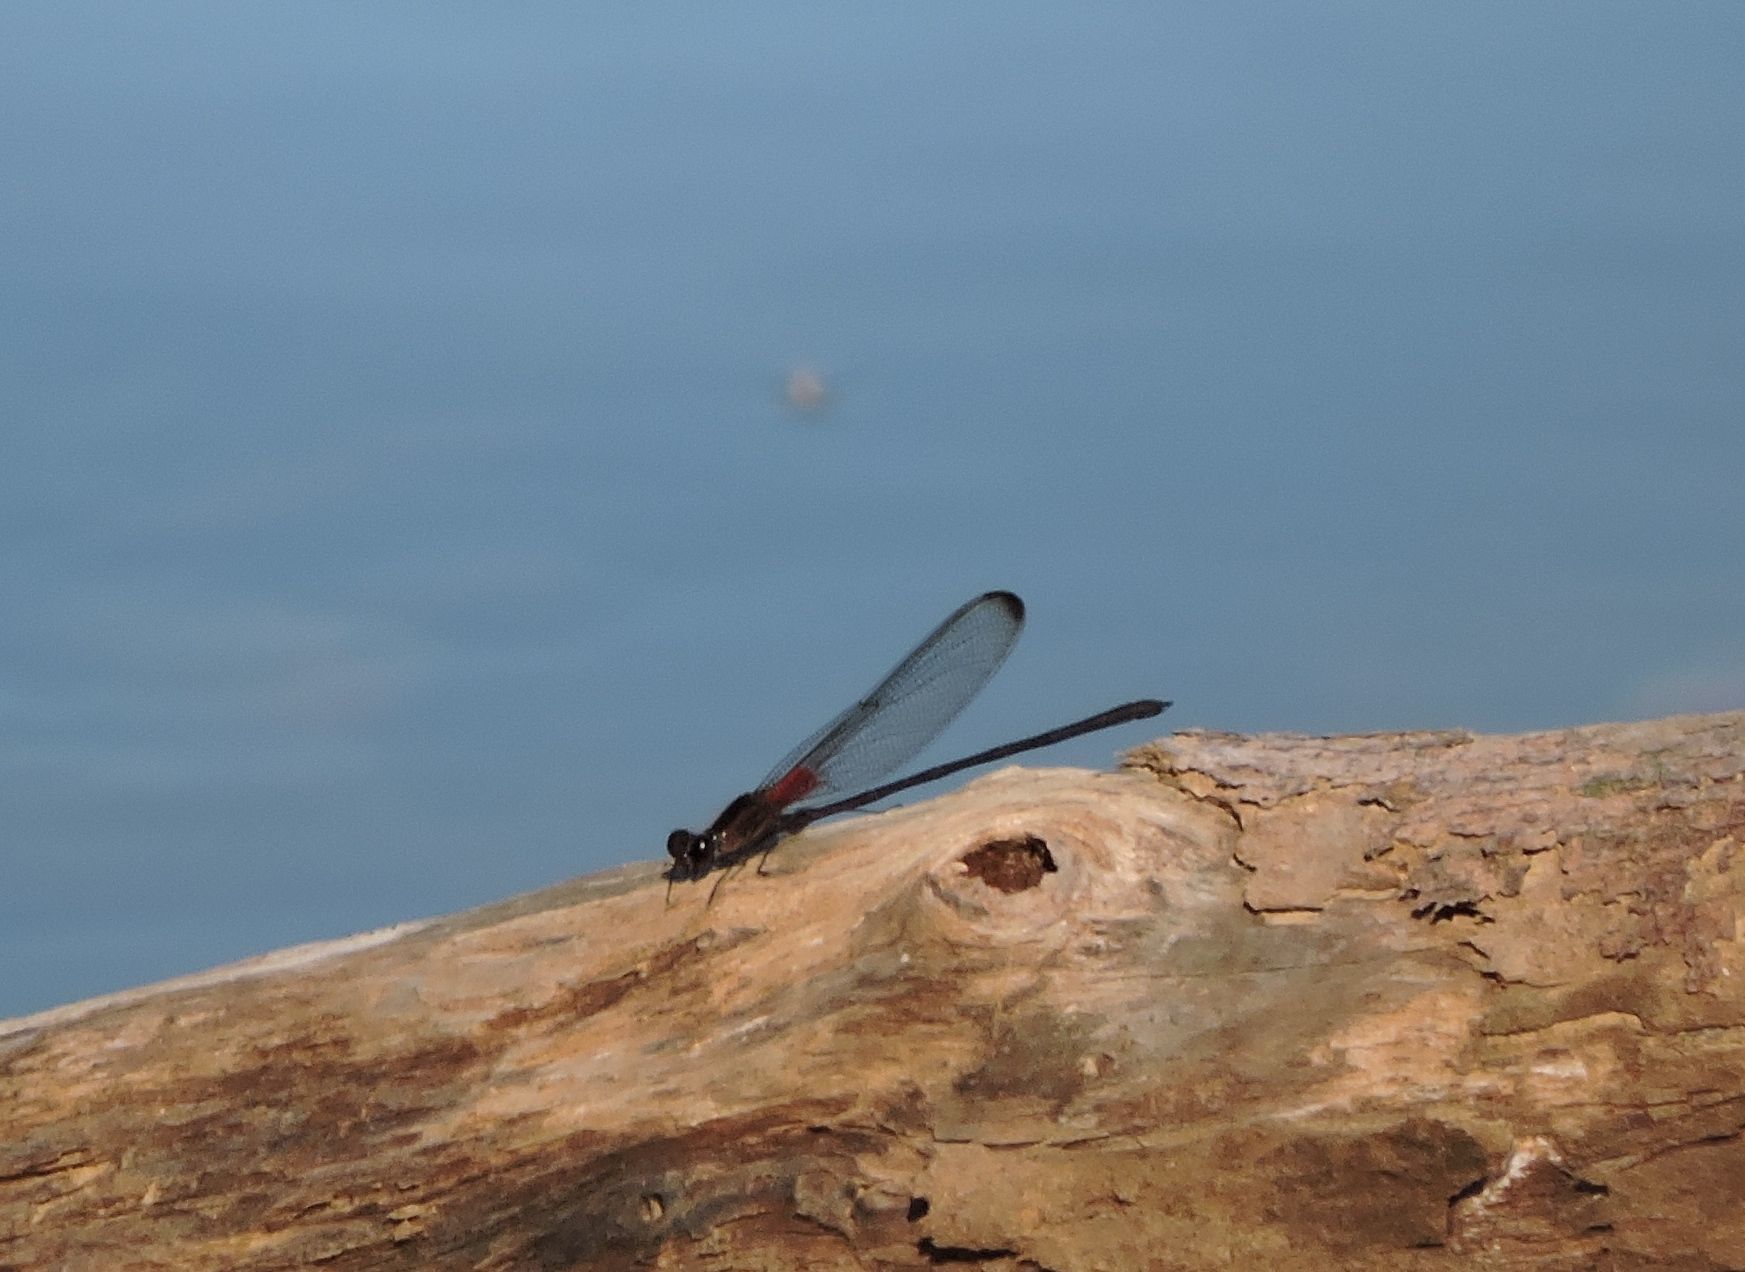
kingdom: Animalia
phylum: Arthropoda
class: Insecta
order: Odonata
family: Calopterygidae
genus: Hetaerina
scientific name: Hetaerina titia
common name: Smoky rubyspot
